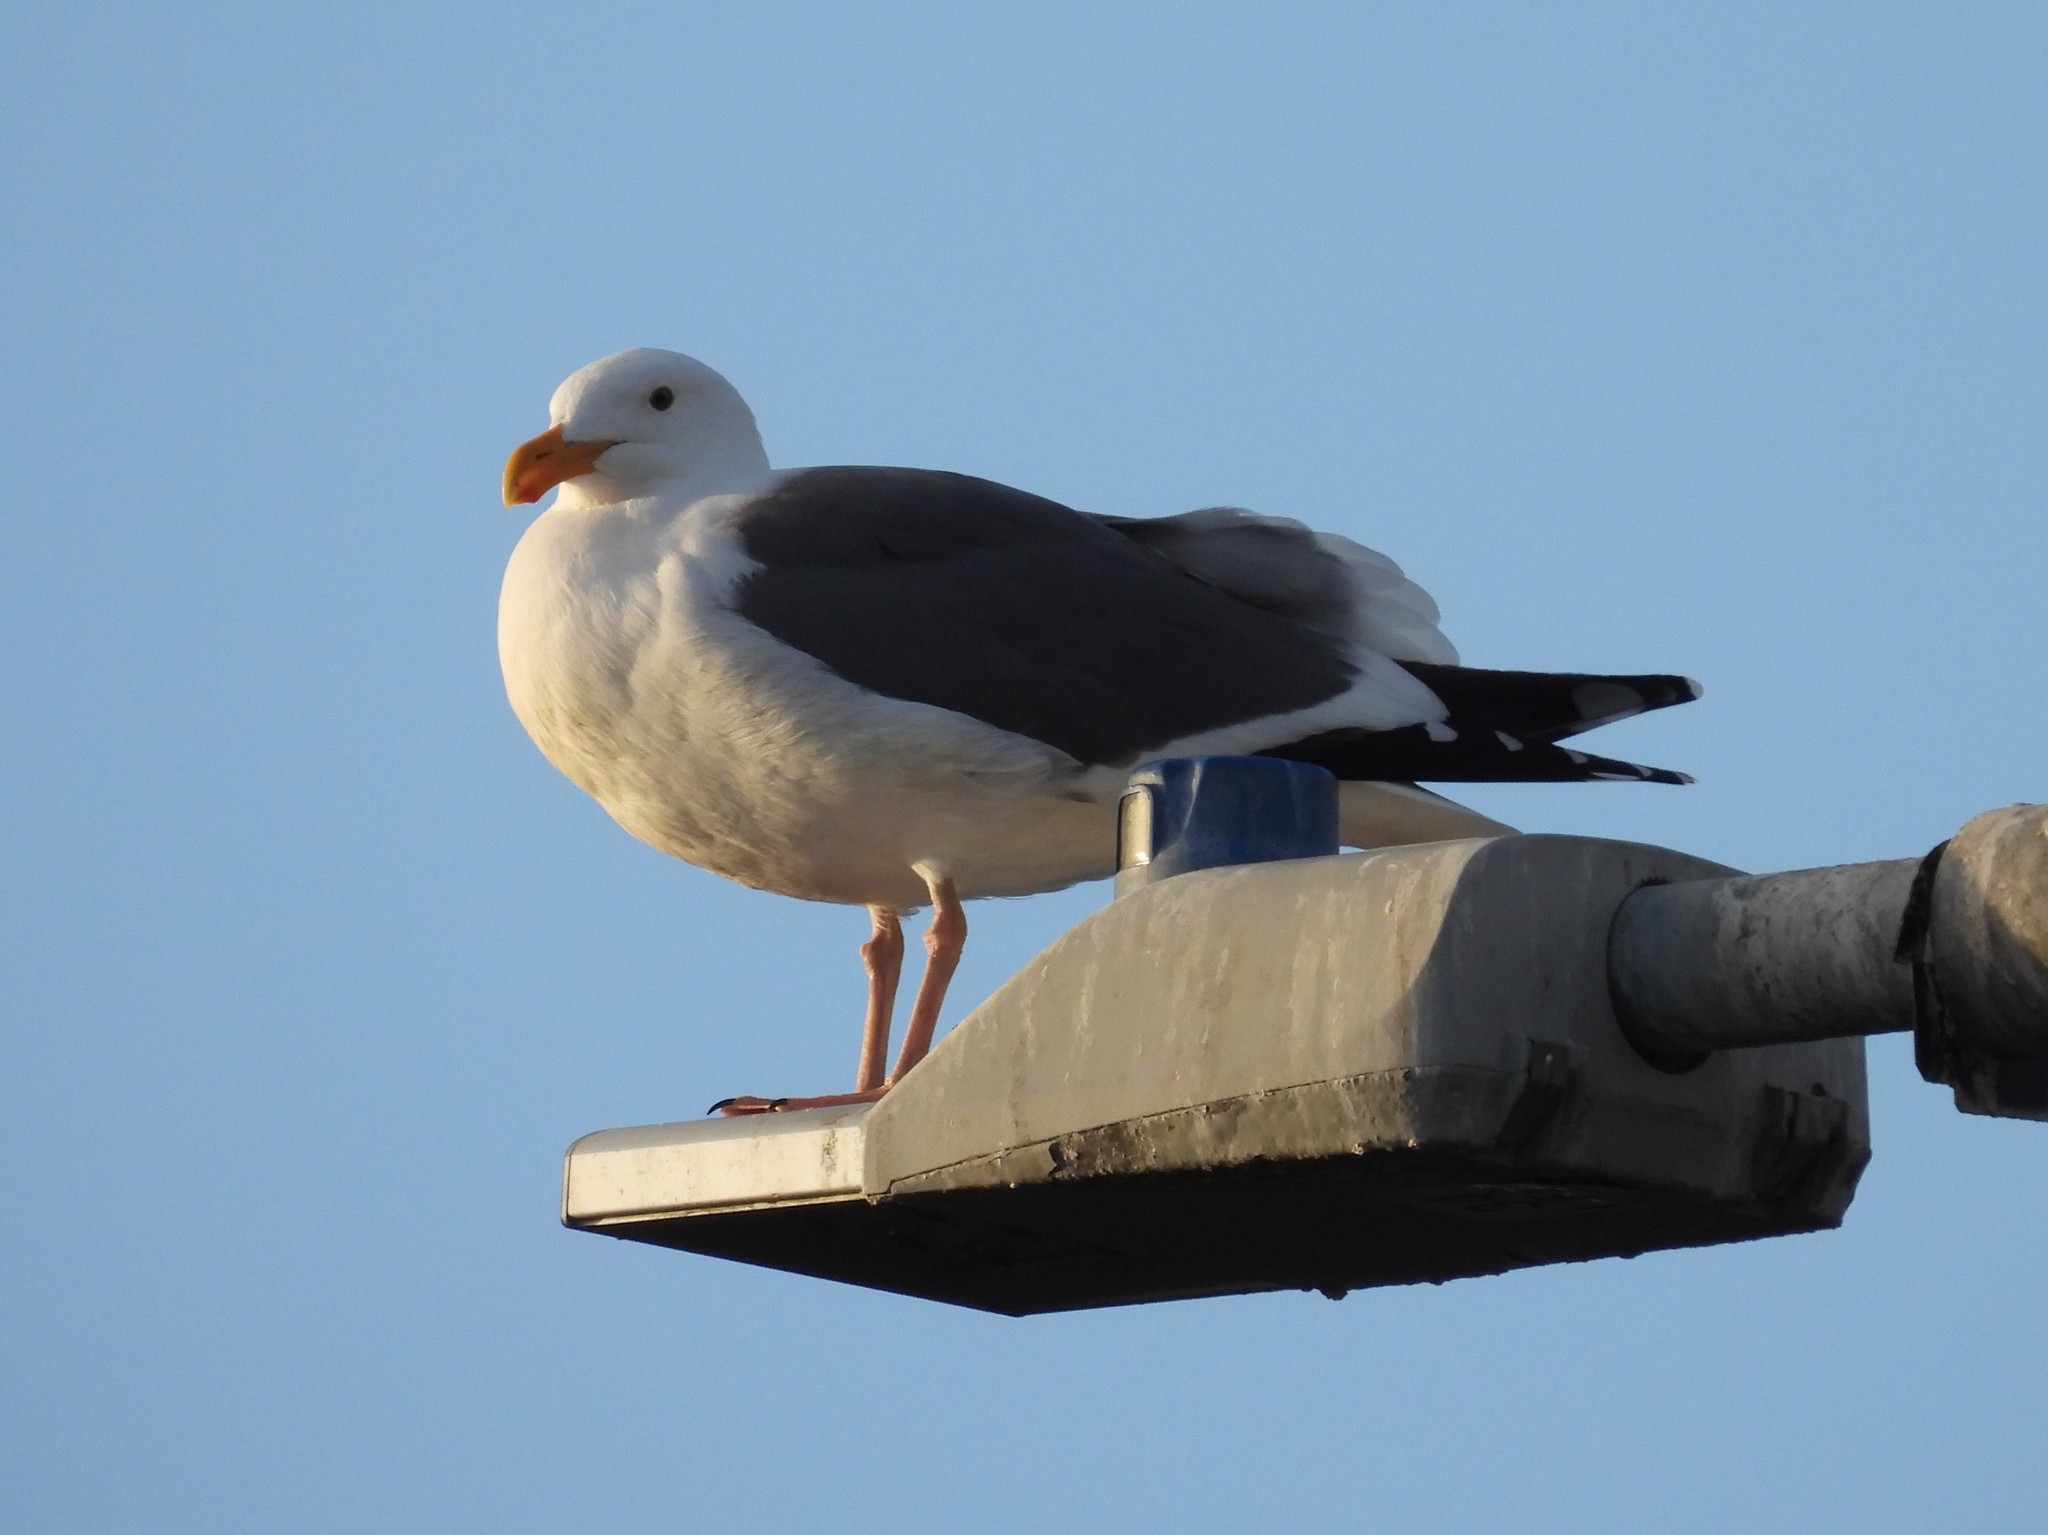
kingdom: Animalia
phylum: Chordata
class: Aves
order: Charadriiformes
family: Laridae
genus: Larus
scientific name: Larus occidentalis
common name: Western gull
